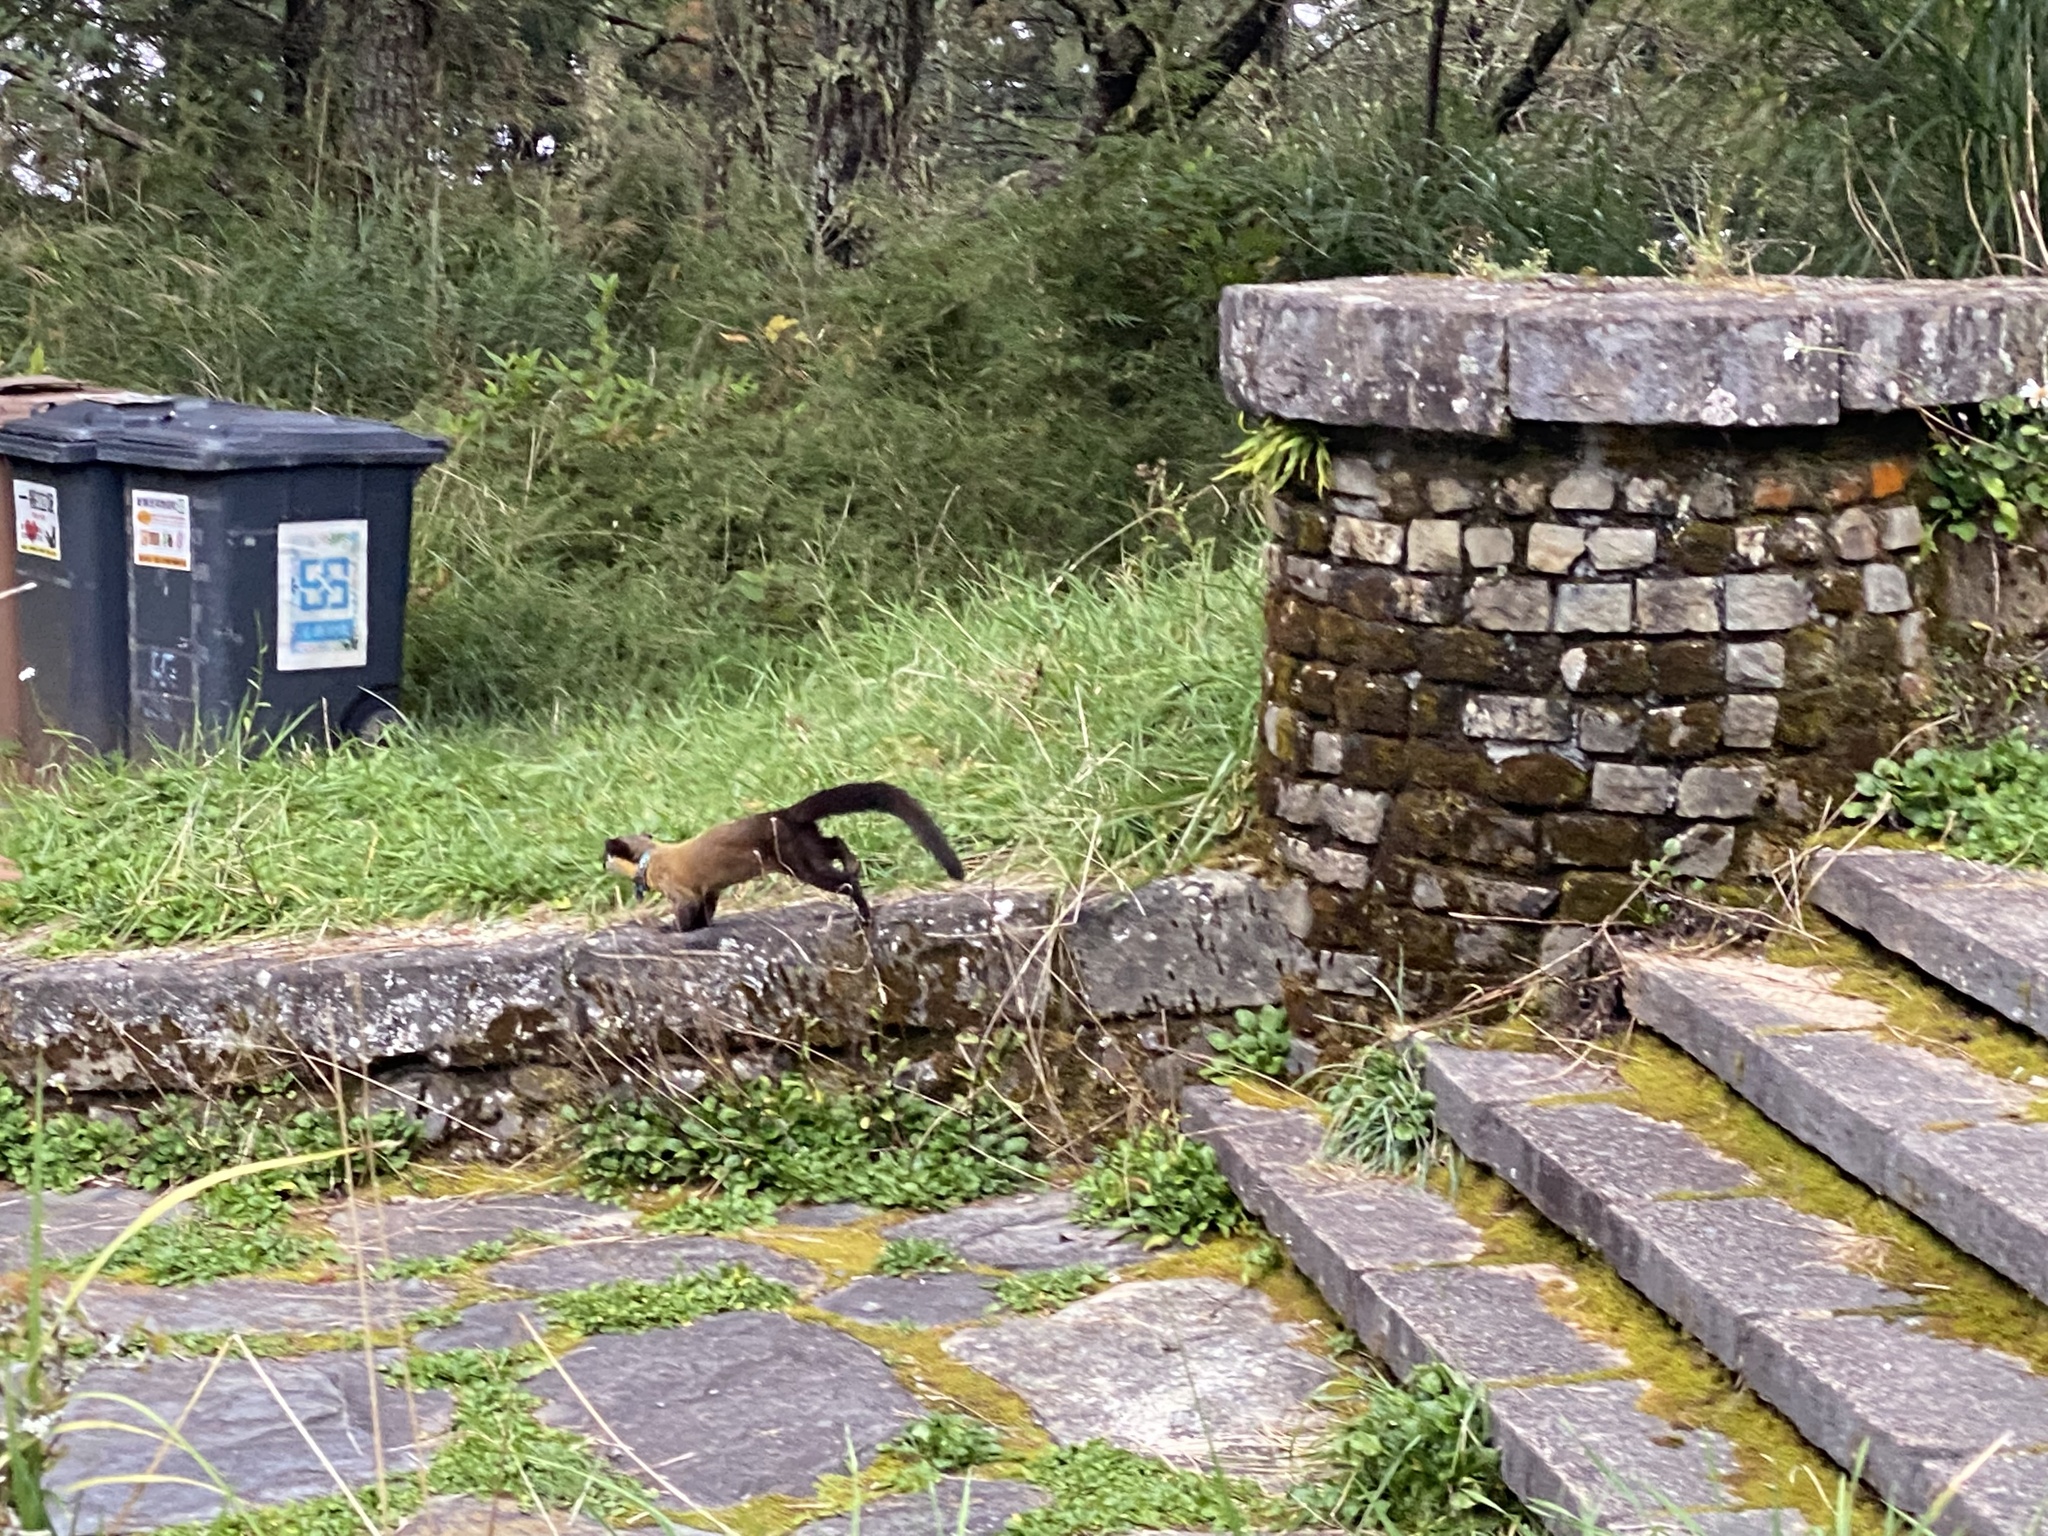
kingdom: Animalia
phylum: Chordata
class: Mammalia
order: Carnivora
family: Mustelidae
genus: Martes
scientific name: Martes flavigula
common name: Yellow-throated marten
